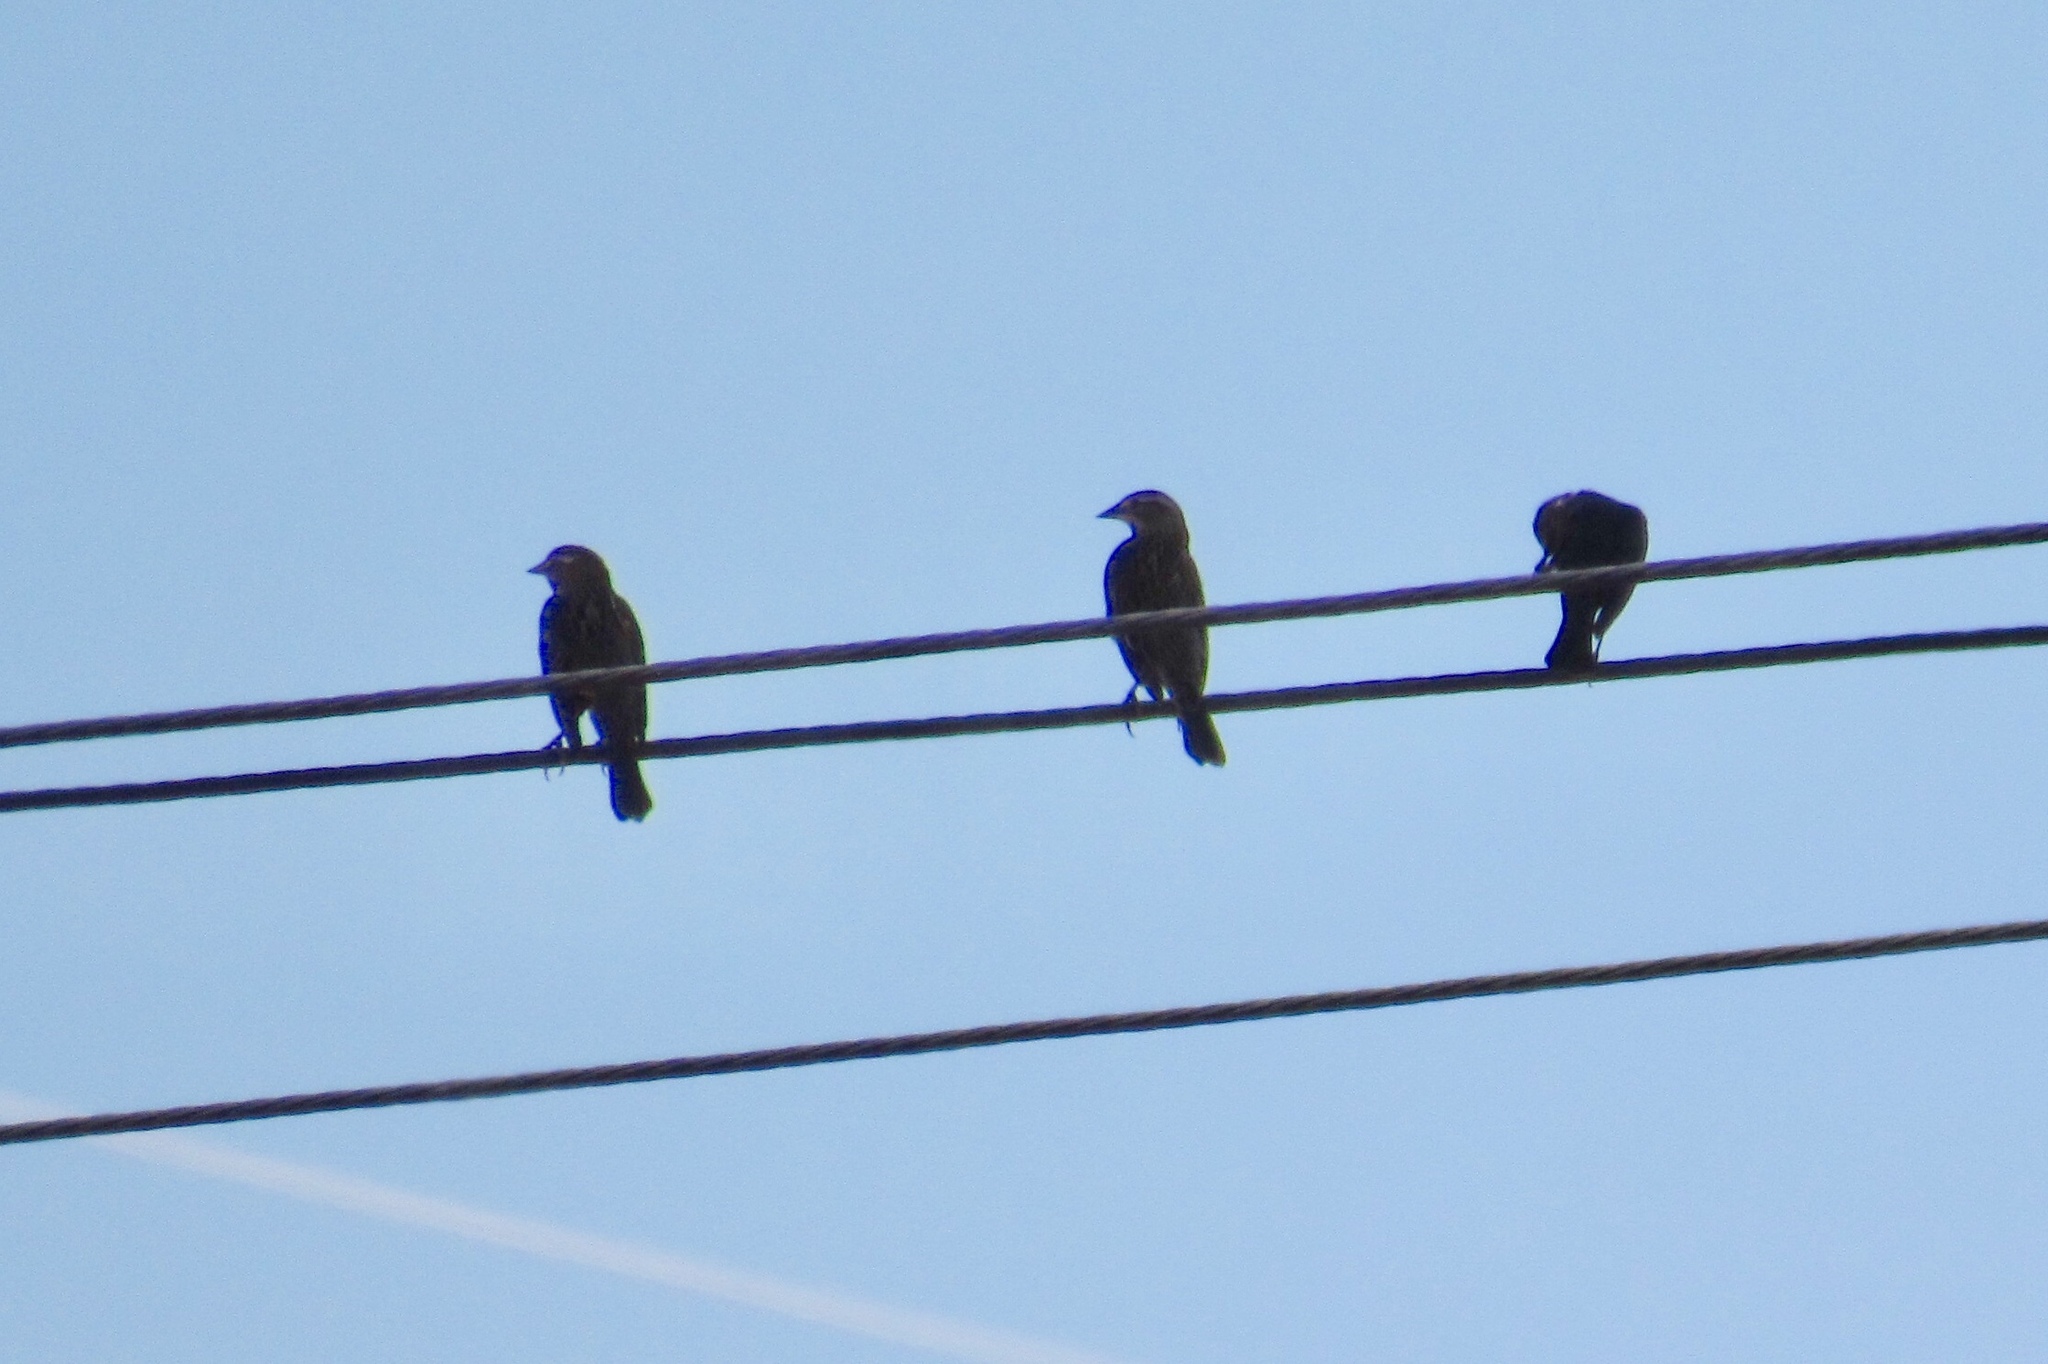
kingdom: Animalia
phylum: Chordata
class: Aves
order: Passeriformes
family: Icteridae
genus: Agelaius
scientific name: Agelaius phoeniceus
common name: Red-winged blackbird
